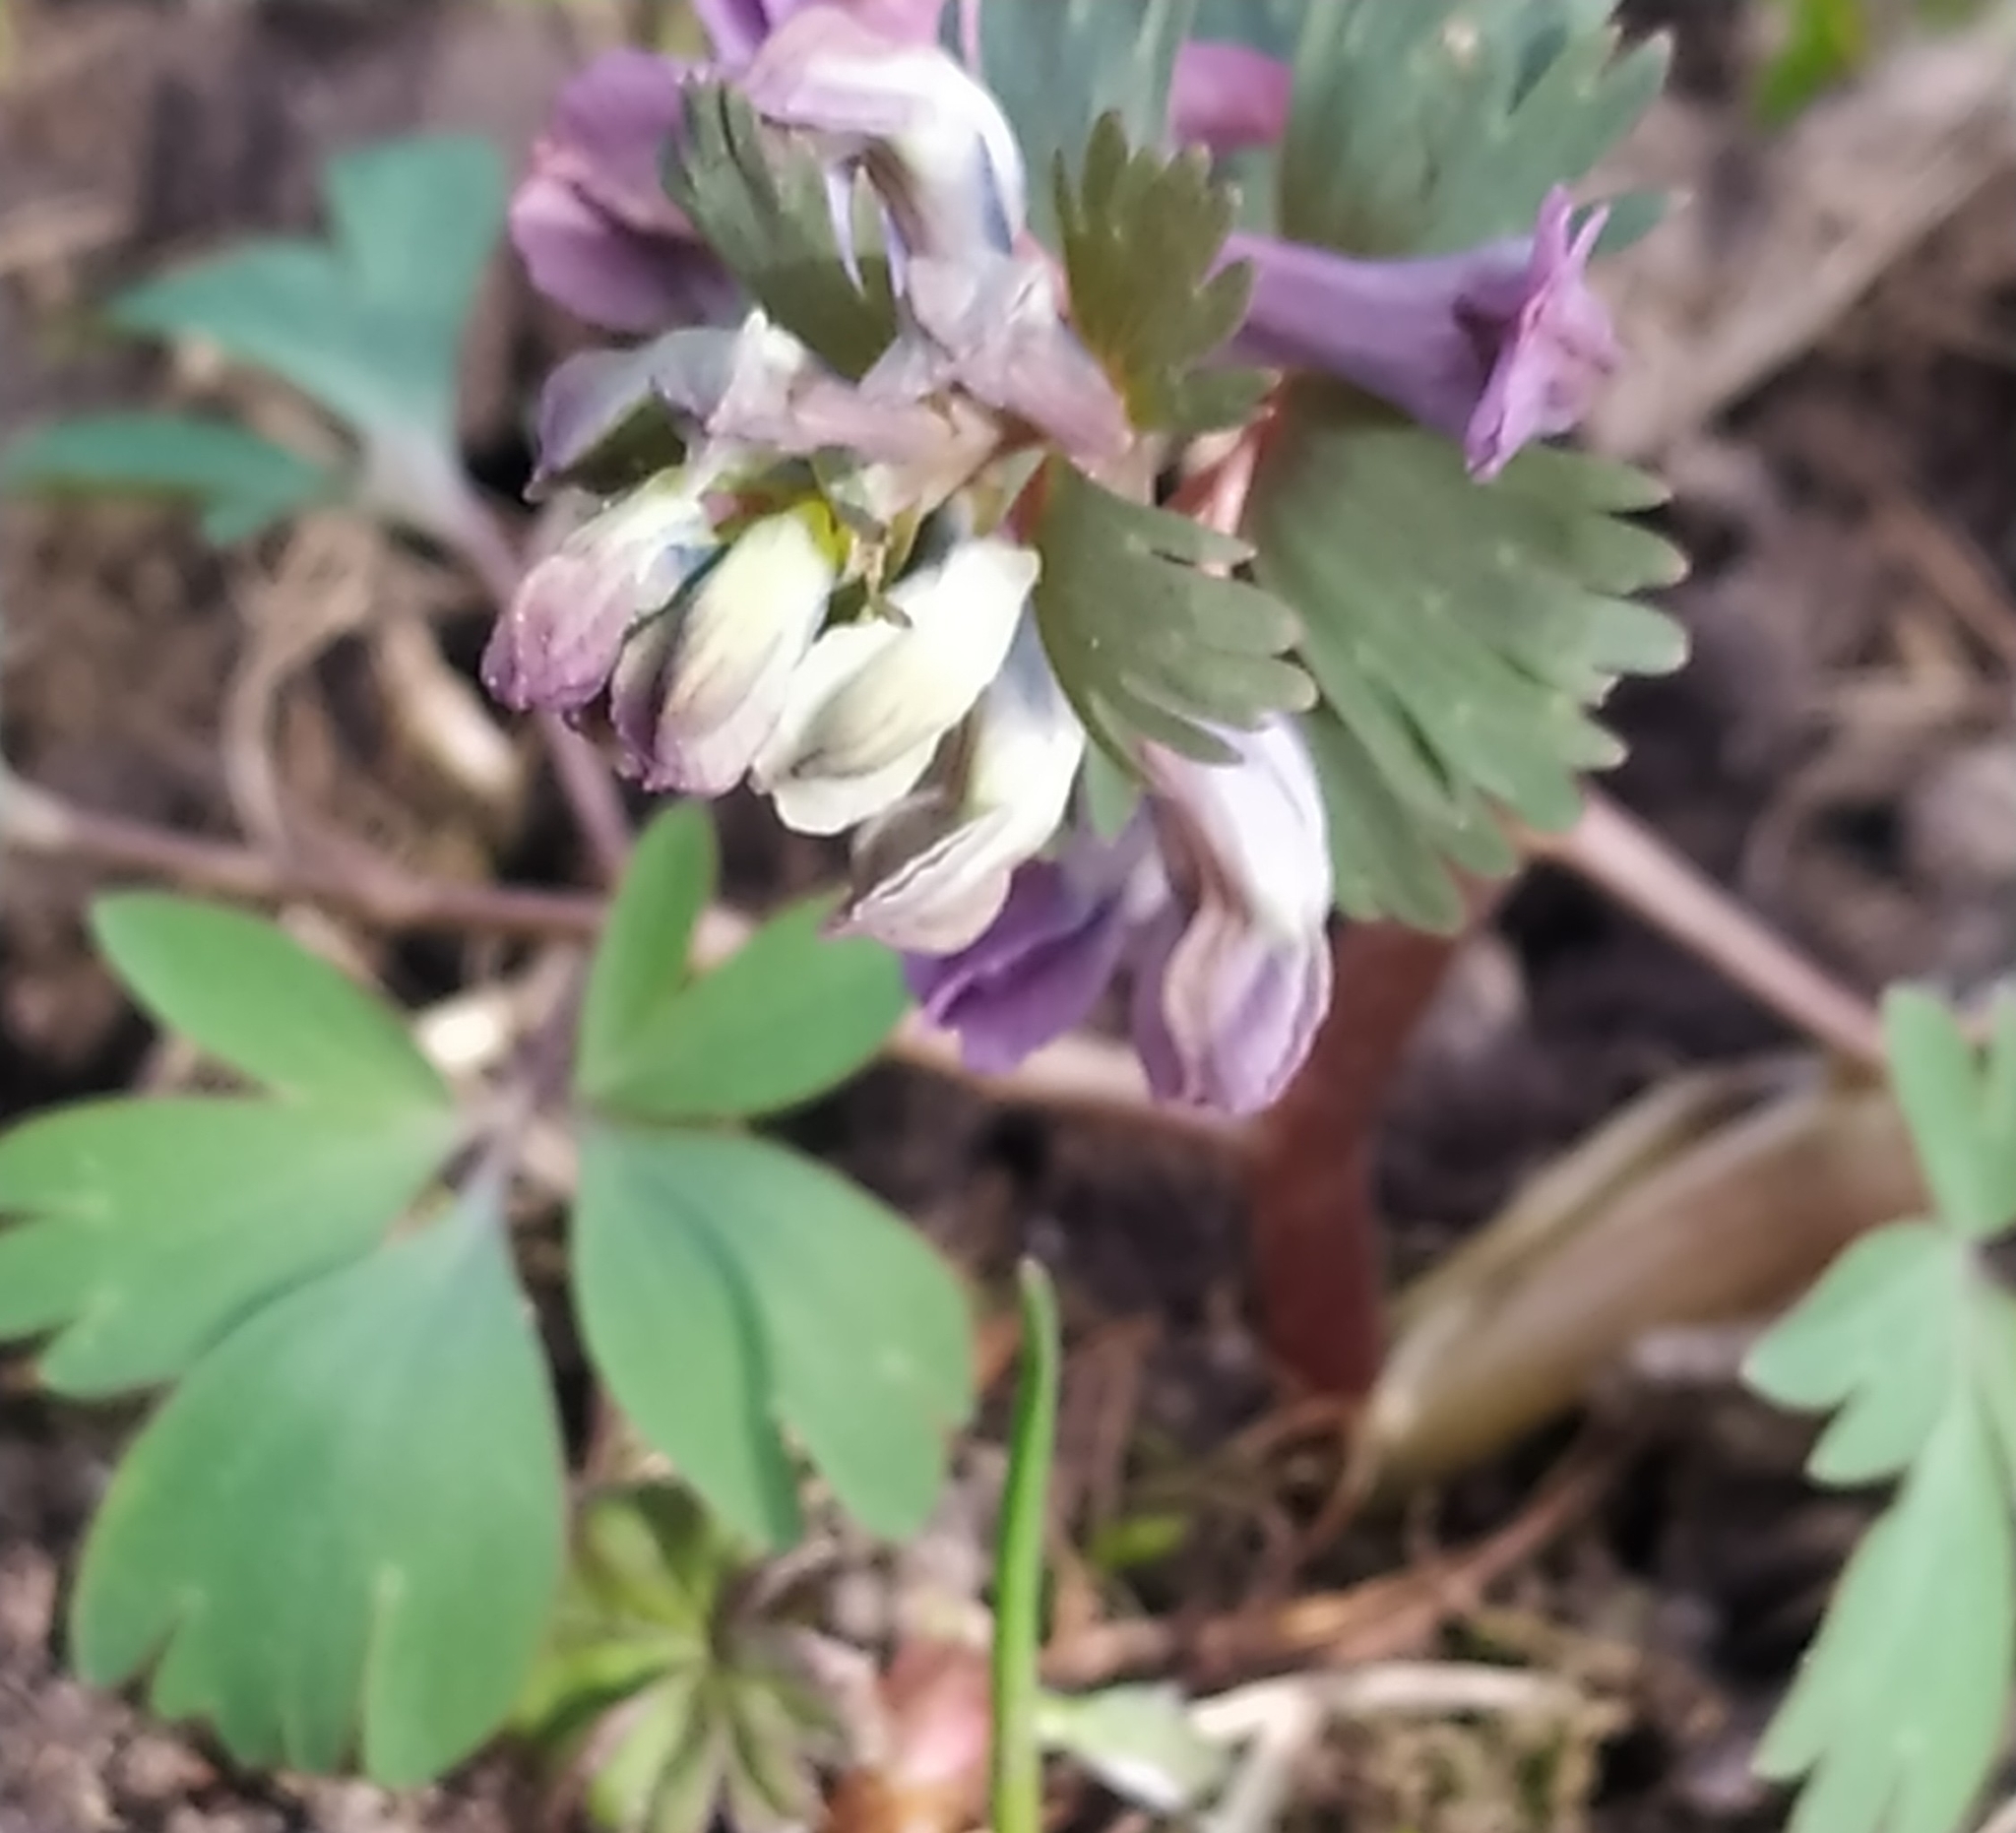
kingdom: Plantae
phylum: Tracheophyta
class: Magnoliopsida
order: Ranunculales
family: Papaveraceae
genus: Corydalis
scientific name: Corydalis solida
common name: Bird-in-a-bush
